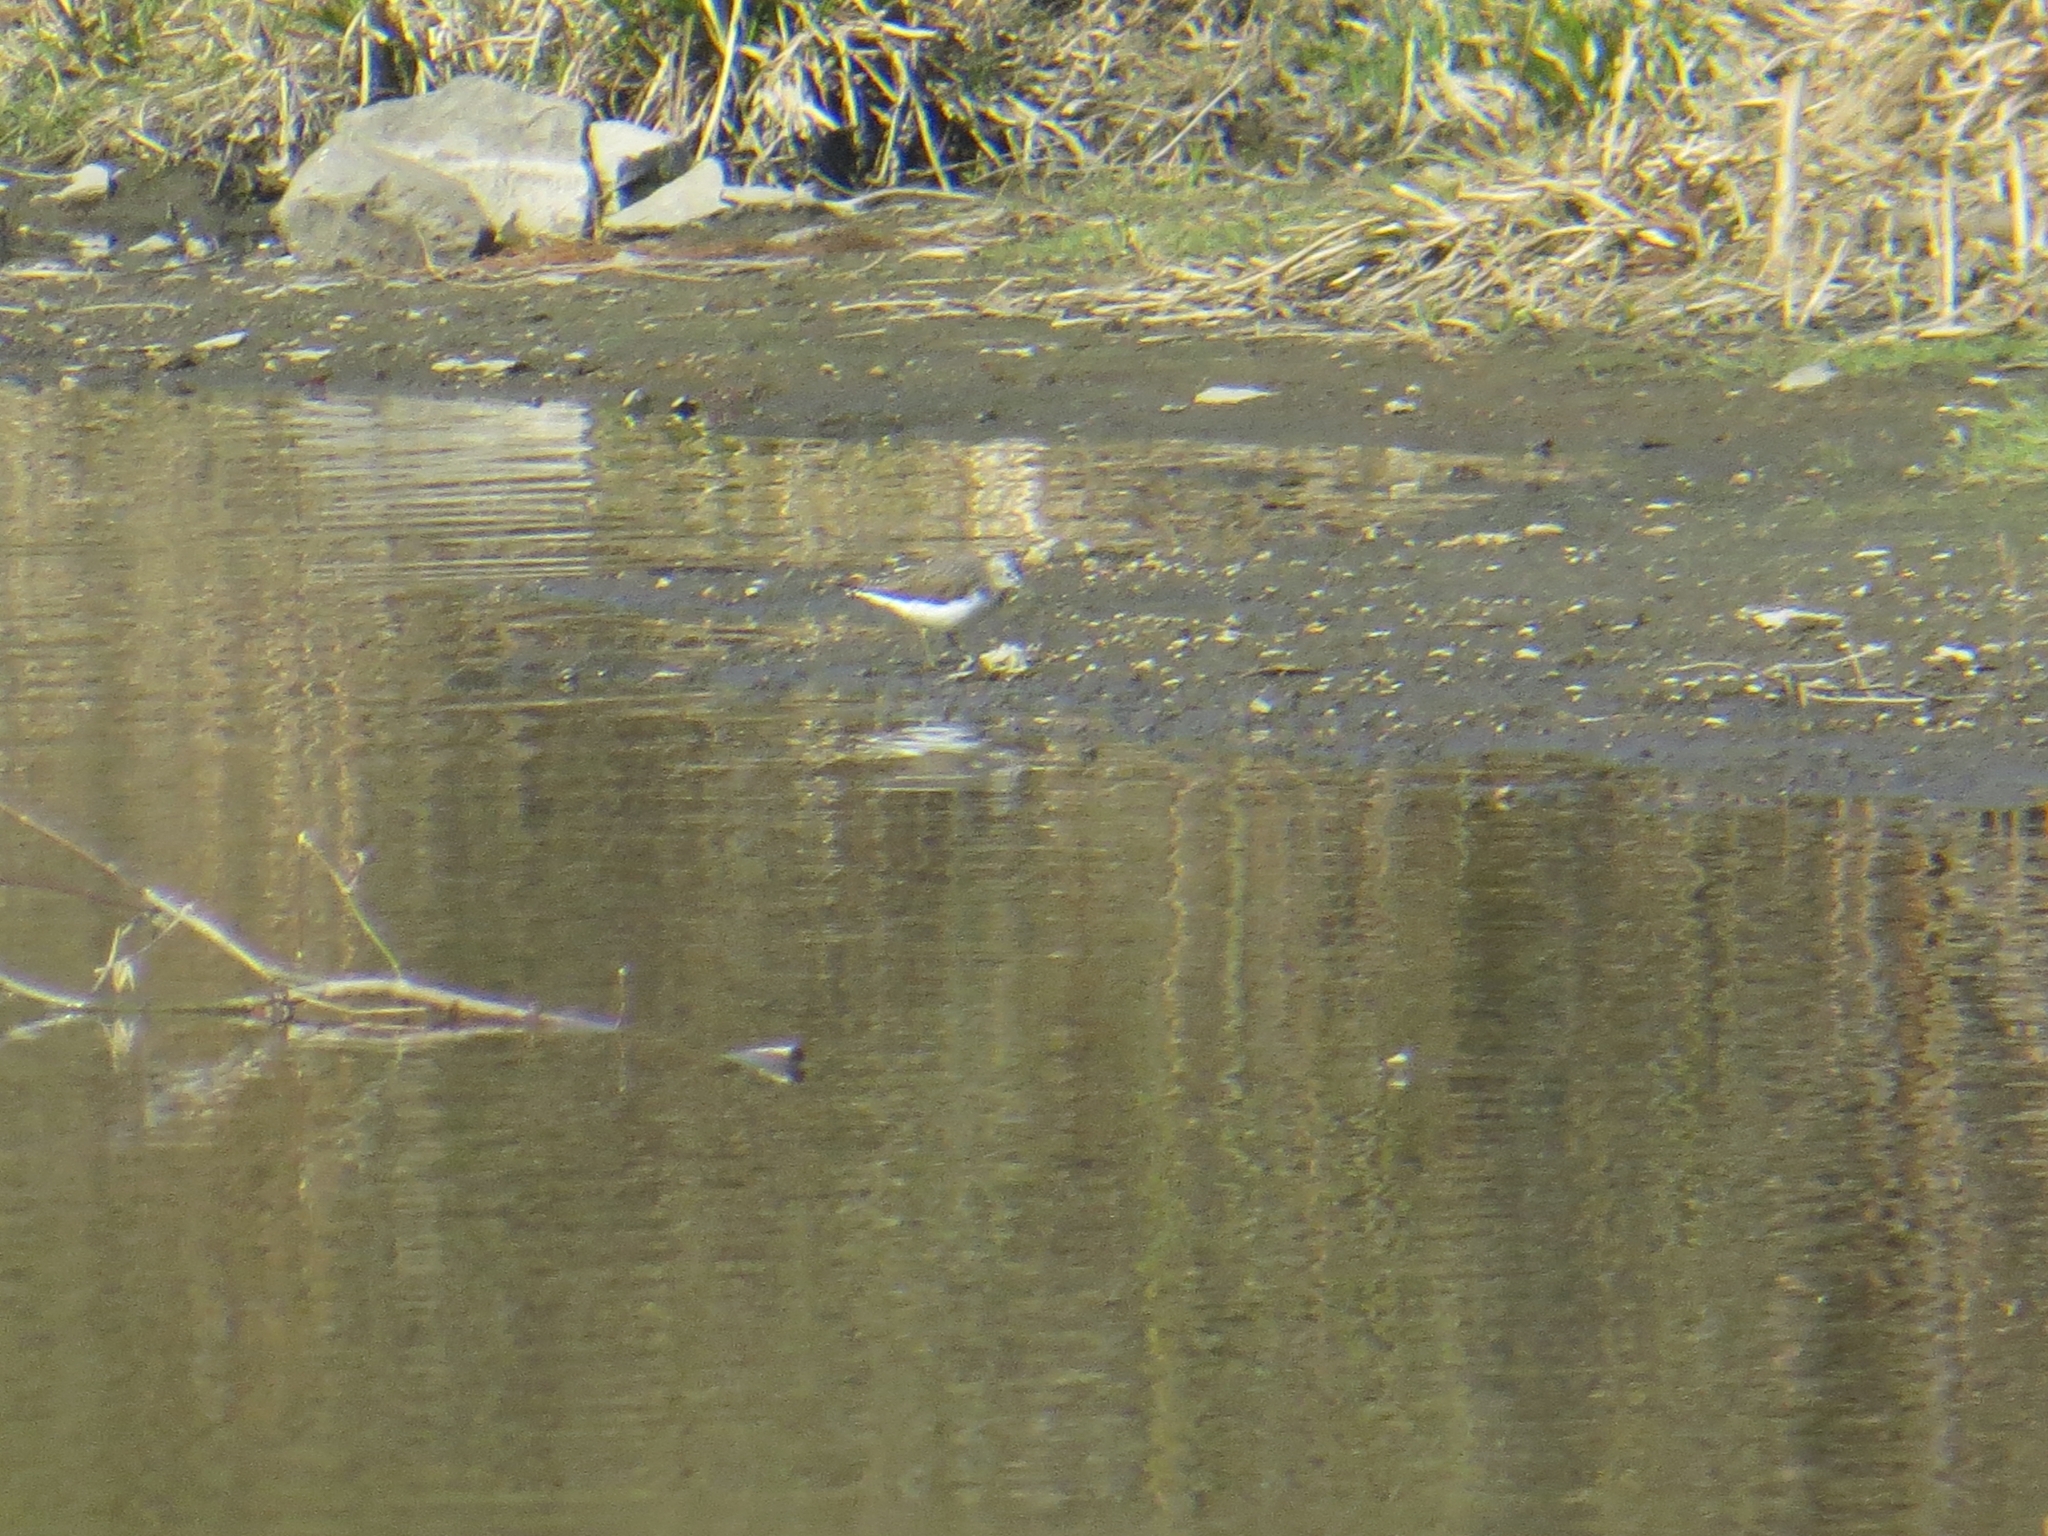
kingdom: Animalia
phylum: Chordata
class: Aves
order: Charadriiformes
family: Scolopacidae
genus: Tringa
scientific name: Tringa ochropus
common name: Green sandpiper
